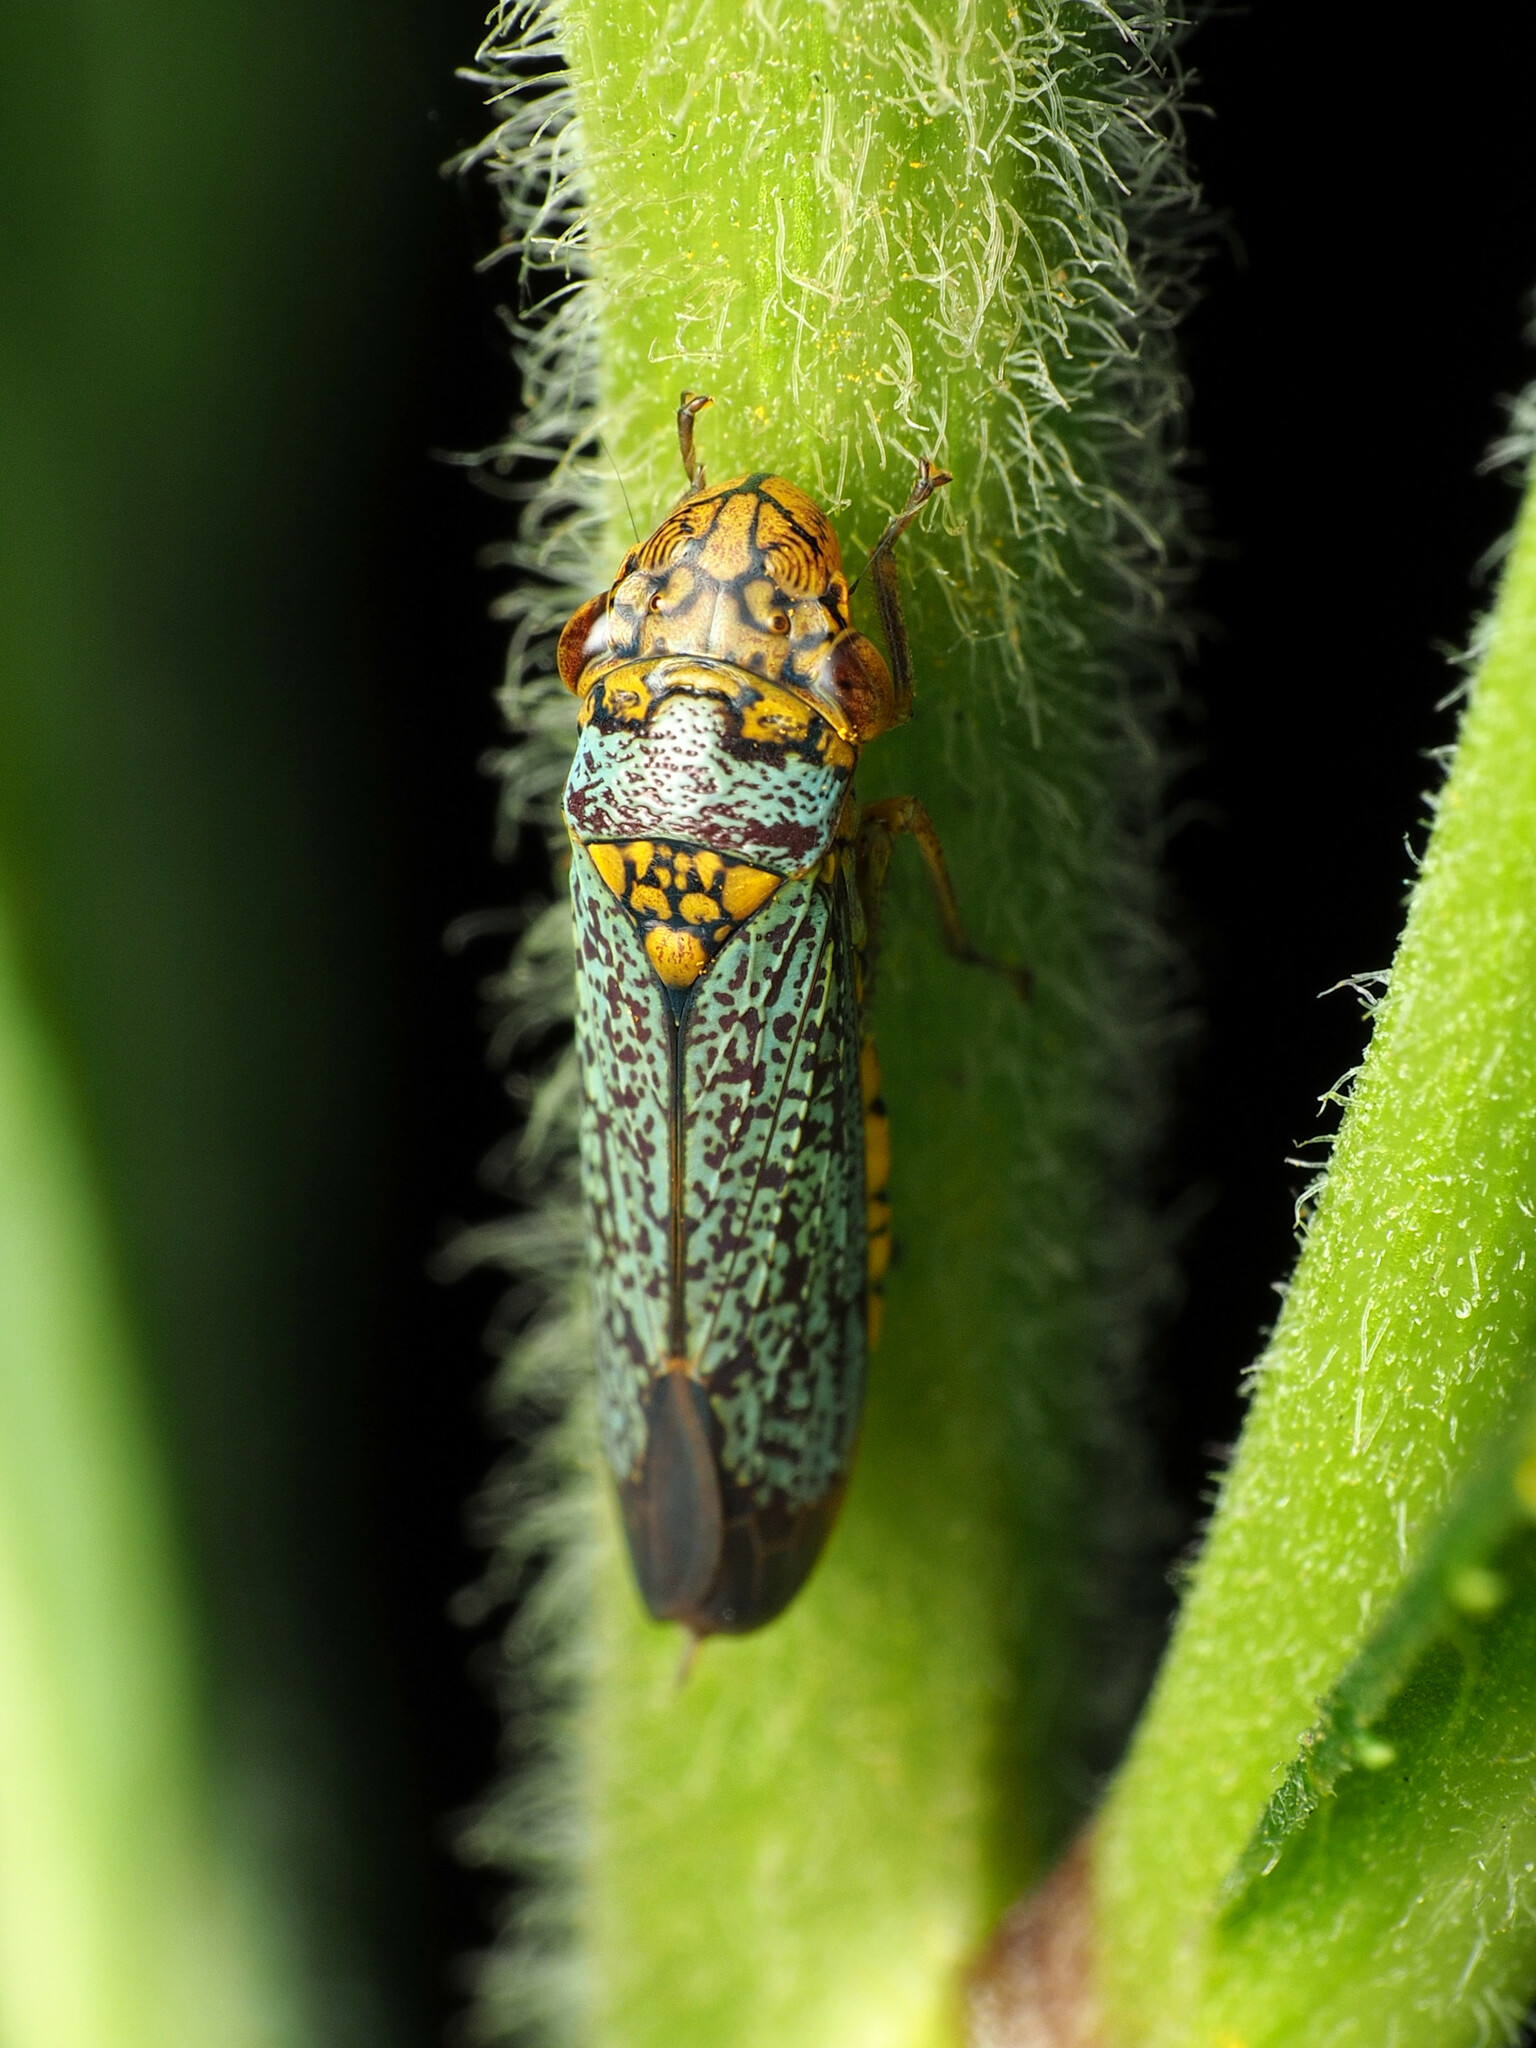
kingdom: Animalia
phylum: Arthropoda
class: Insecta
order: Hemiptera
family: Cicadellidae
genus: Oncometopia
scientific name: Oncometopia orbona
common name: Broad-headed sharpshooter
